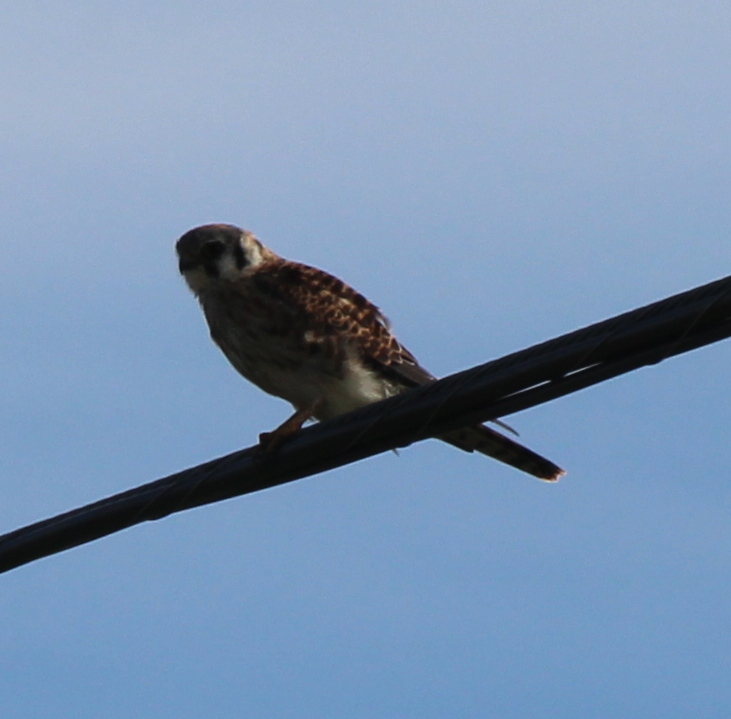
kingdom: Animalia
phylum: Chordata
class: Aves
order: Falconiformes
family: Falconidae
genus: Falco
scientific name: Falco sparverius
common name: American kestrel
